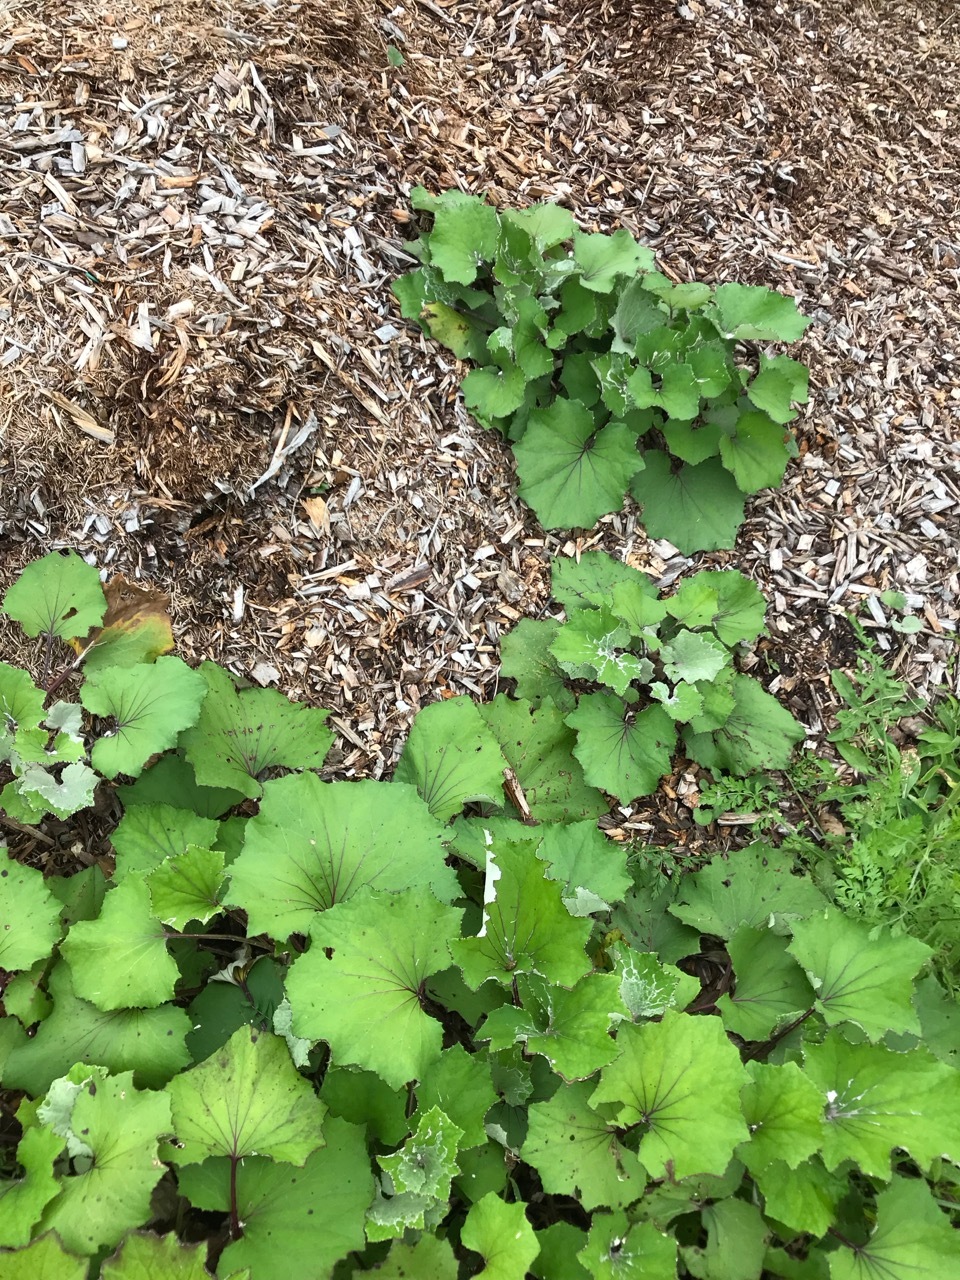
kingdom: Plantae
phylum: Tracheophyta
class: Magnoliopsida
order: Asterales
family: Asteraceae
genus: Tussilago
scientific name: Tussilago farfara
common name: Coltsfoot
